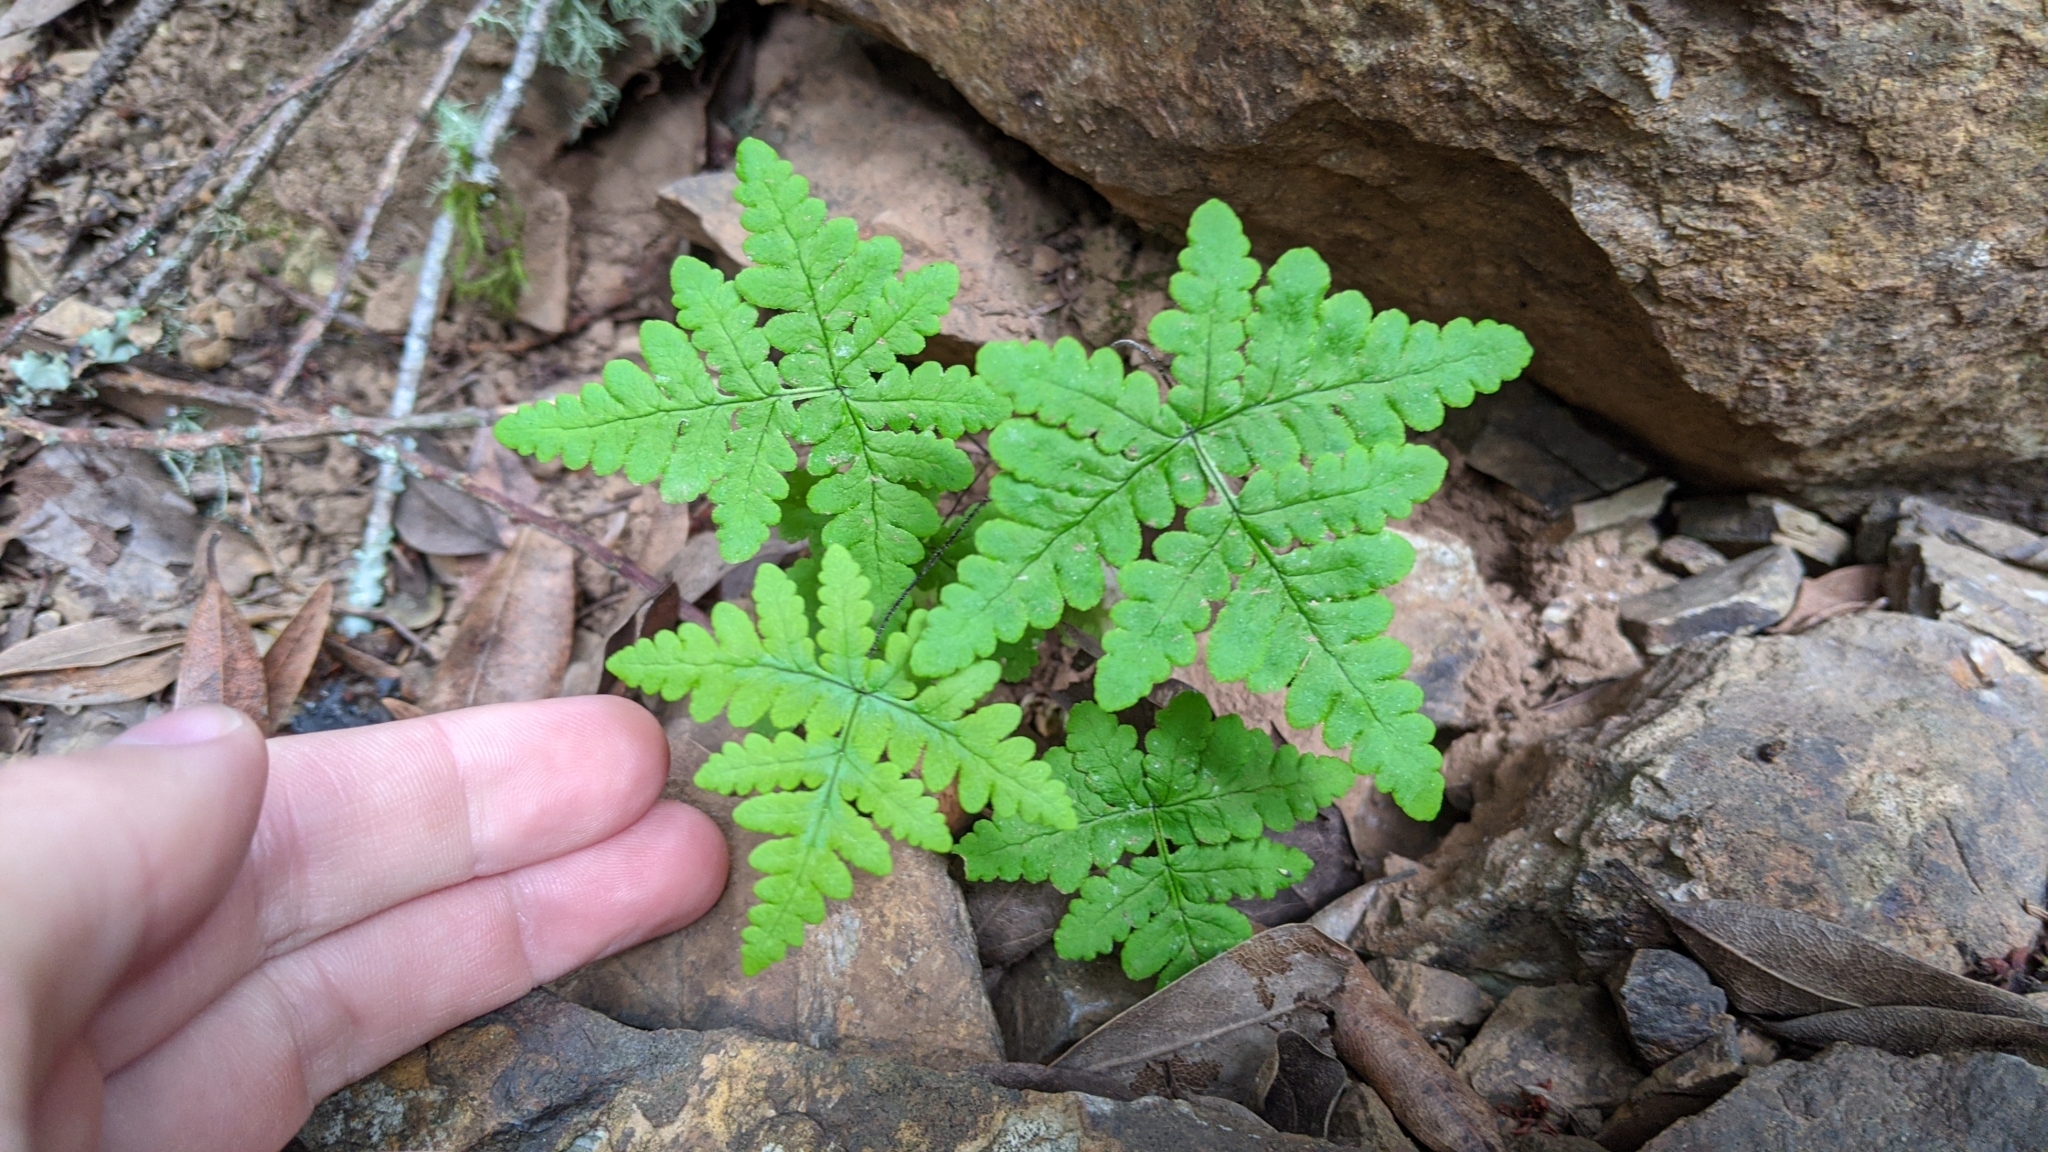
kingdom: Plantae
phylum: Tracheophyta
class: Polypodiopsida
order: Polypodiales
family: Pteridaceae
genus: Pentagramma
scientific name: Pentagramma triangularis
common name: Gold fern
